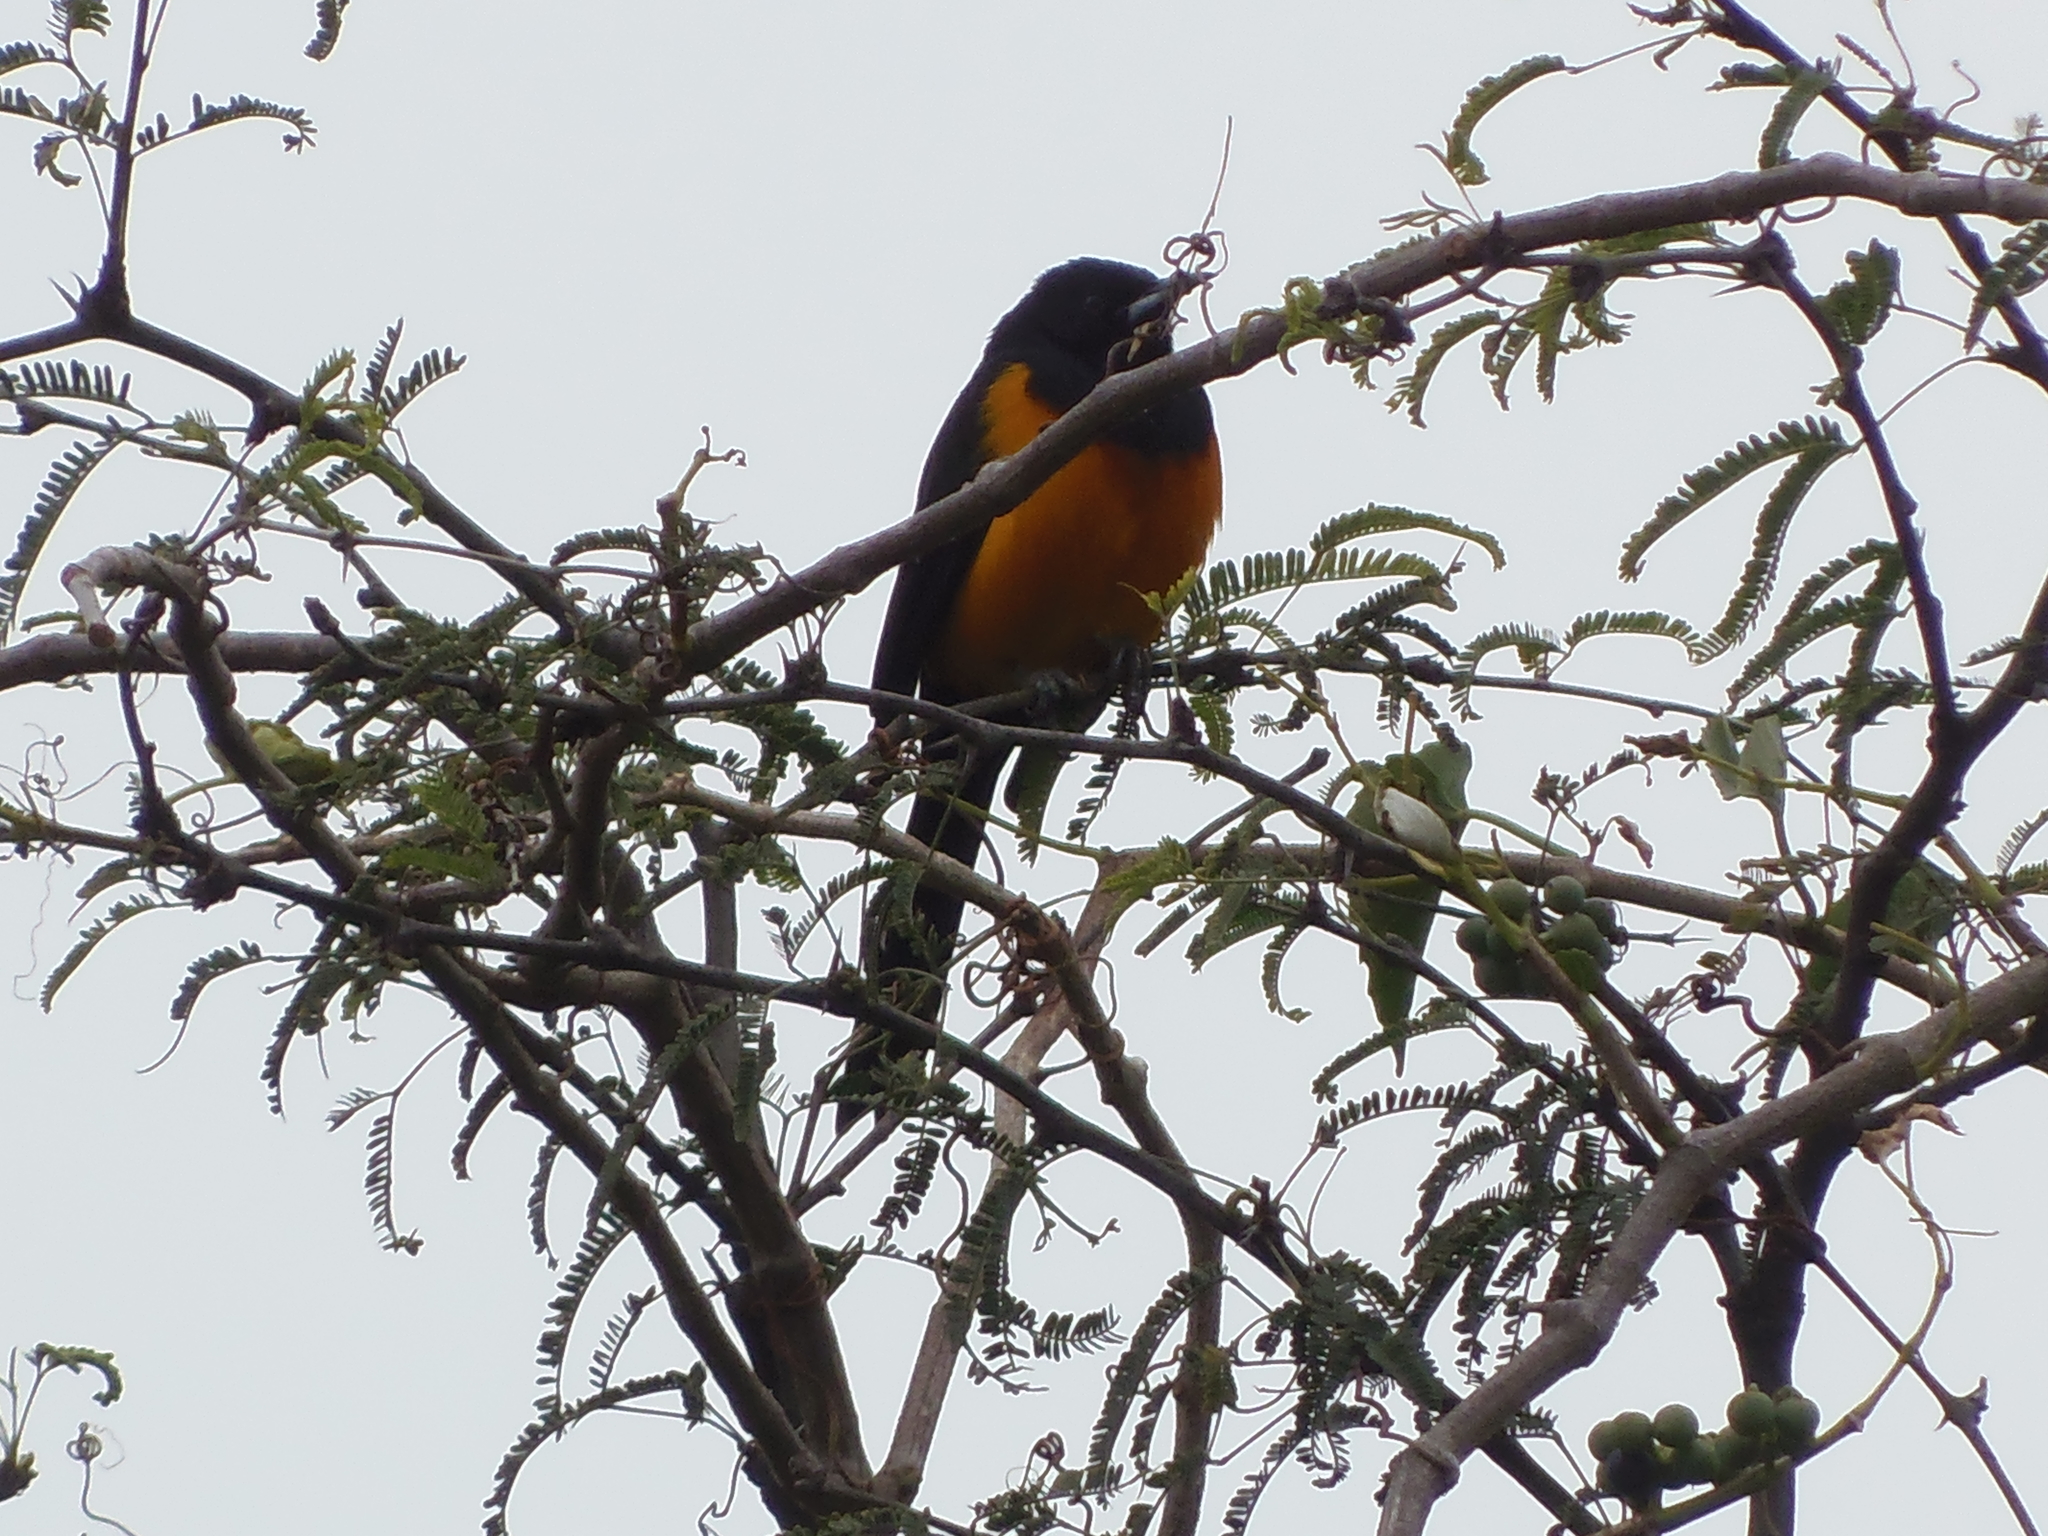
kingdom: Animalia
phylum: Chordata
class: Aves
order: Passeriformes
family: Icteridae
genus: Icterus
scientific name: Icterus wagleri
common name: Black-vented oriole
